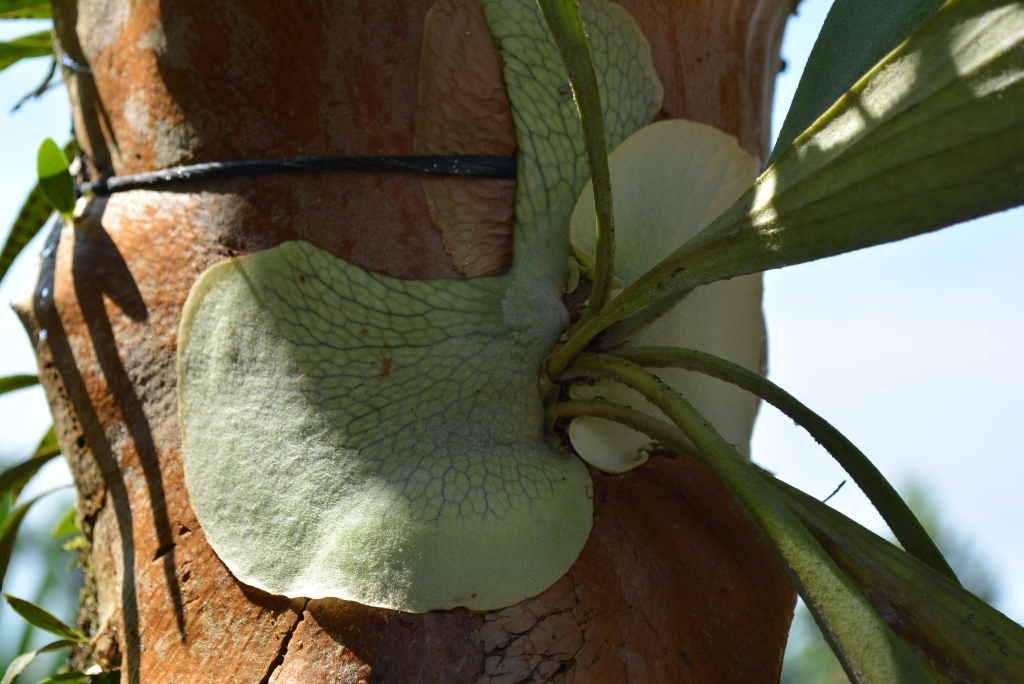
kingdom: Plantae
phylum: Tracheophyta
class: Polypodiopsida
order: Polypodiales
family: Polypodiaceae
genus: Platycerium
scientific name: Platycerium bifurcatum
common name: Elkhorn fern
